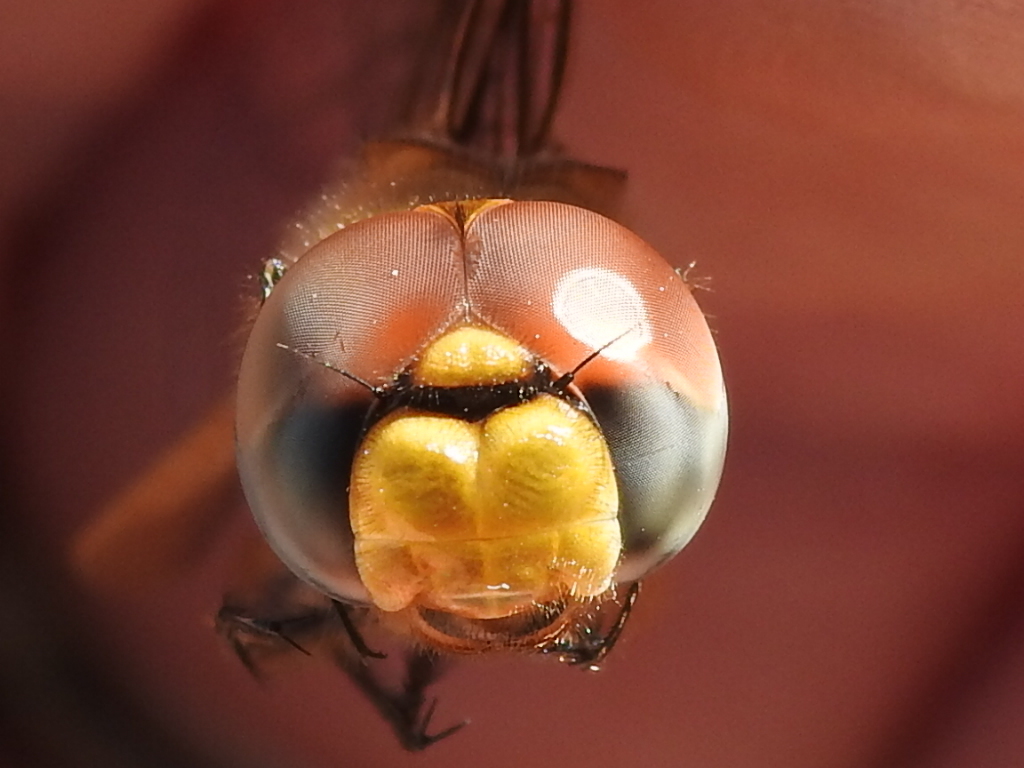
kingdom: Animalia
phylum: Arthropoda
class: Insecta
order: Odonata
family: Libellulidae
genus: Pantala
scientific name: Pantala flavescens
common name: Wandering glider
